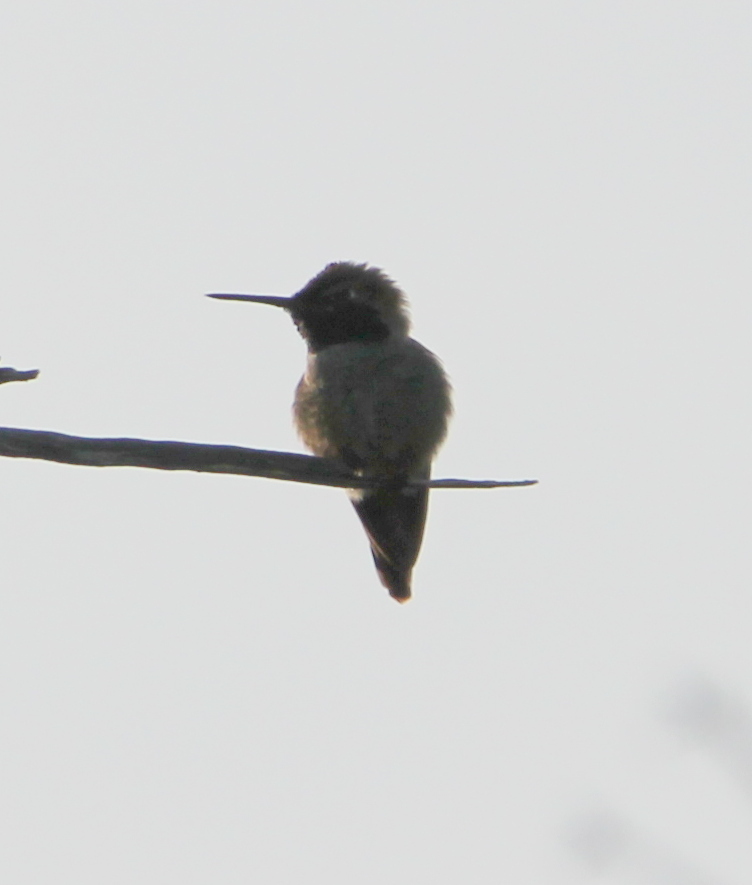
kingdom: Animalia
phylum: Chordata
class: Aves
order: Apodiformes
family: Trochilidae
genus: Calypte
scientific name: Calypte anna
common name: Anna's hummingbird
